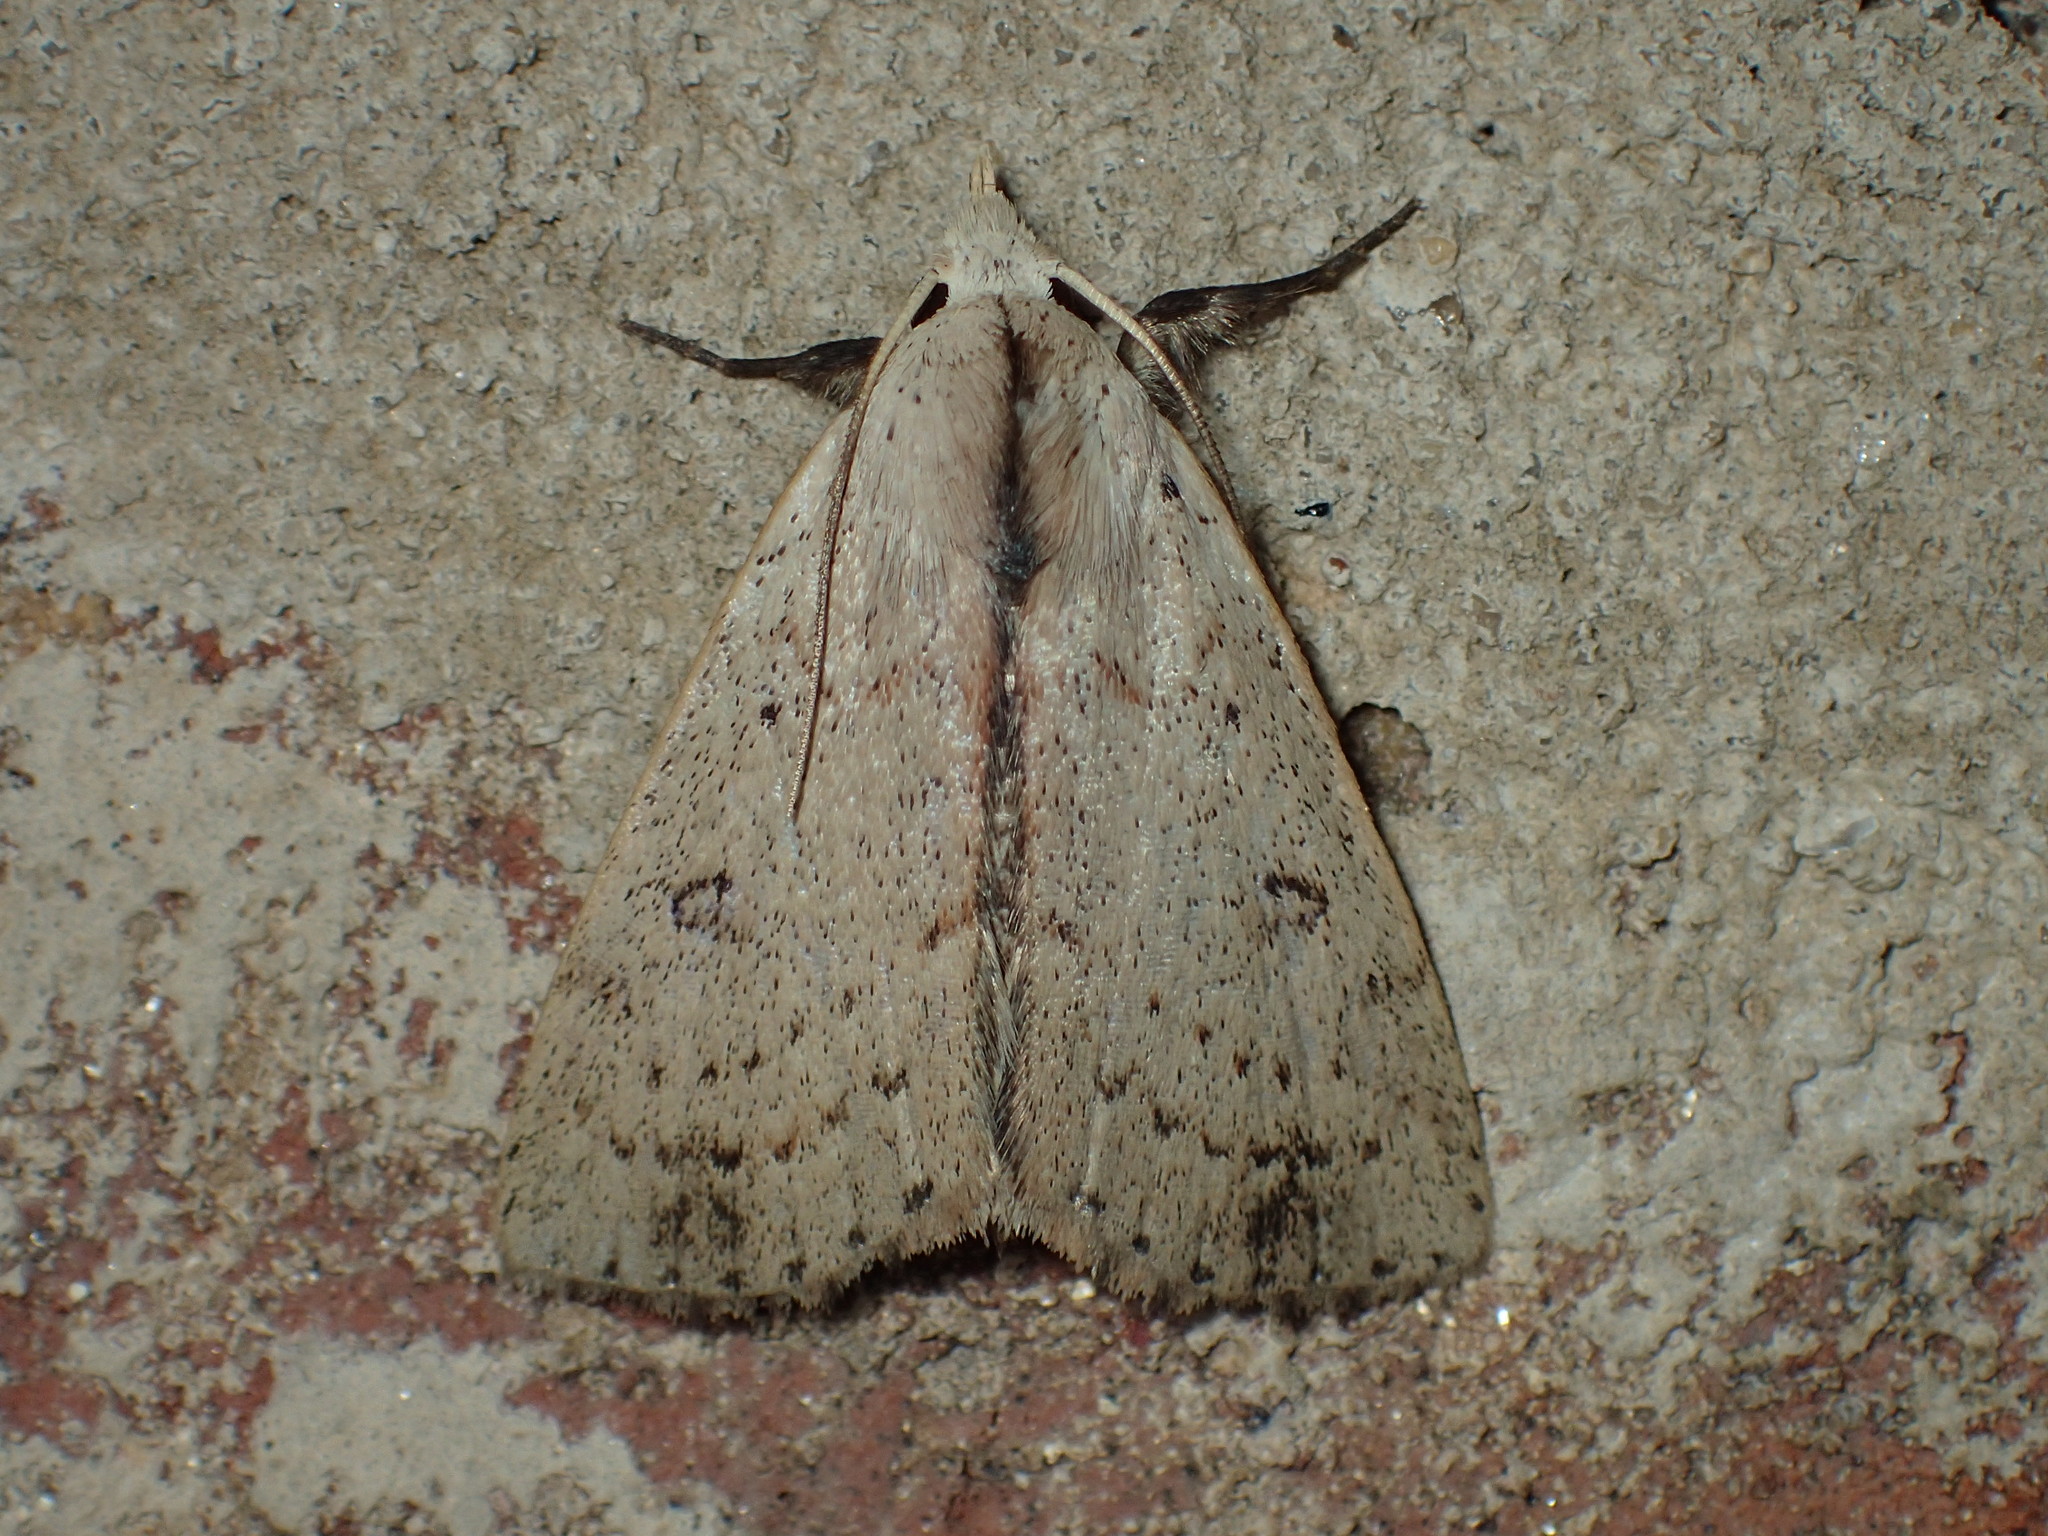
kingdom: Animalia
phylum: Arthropoda
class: Insecta
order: Lepidoptera
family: Erebidae
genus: Scolecocampa
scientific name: Scolecocampa liburna
